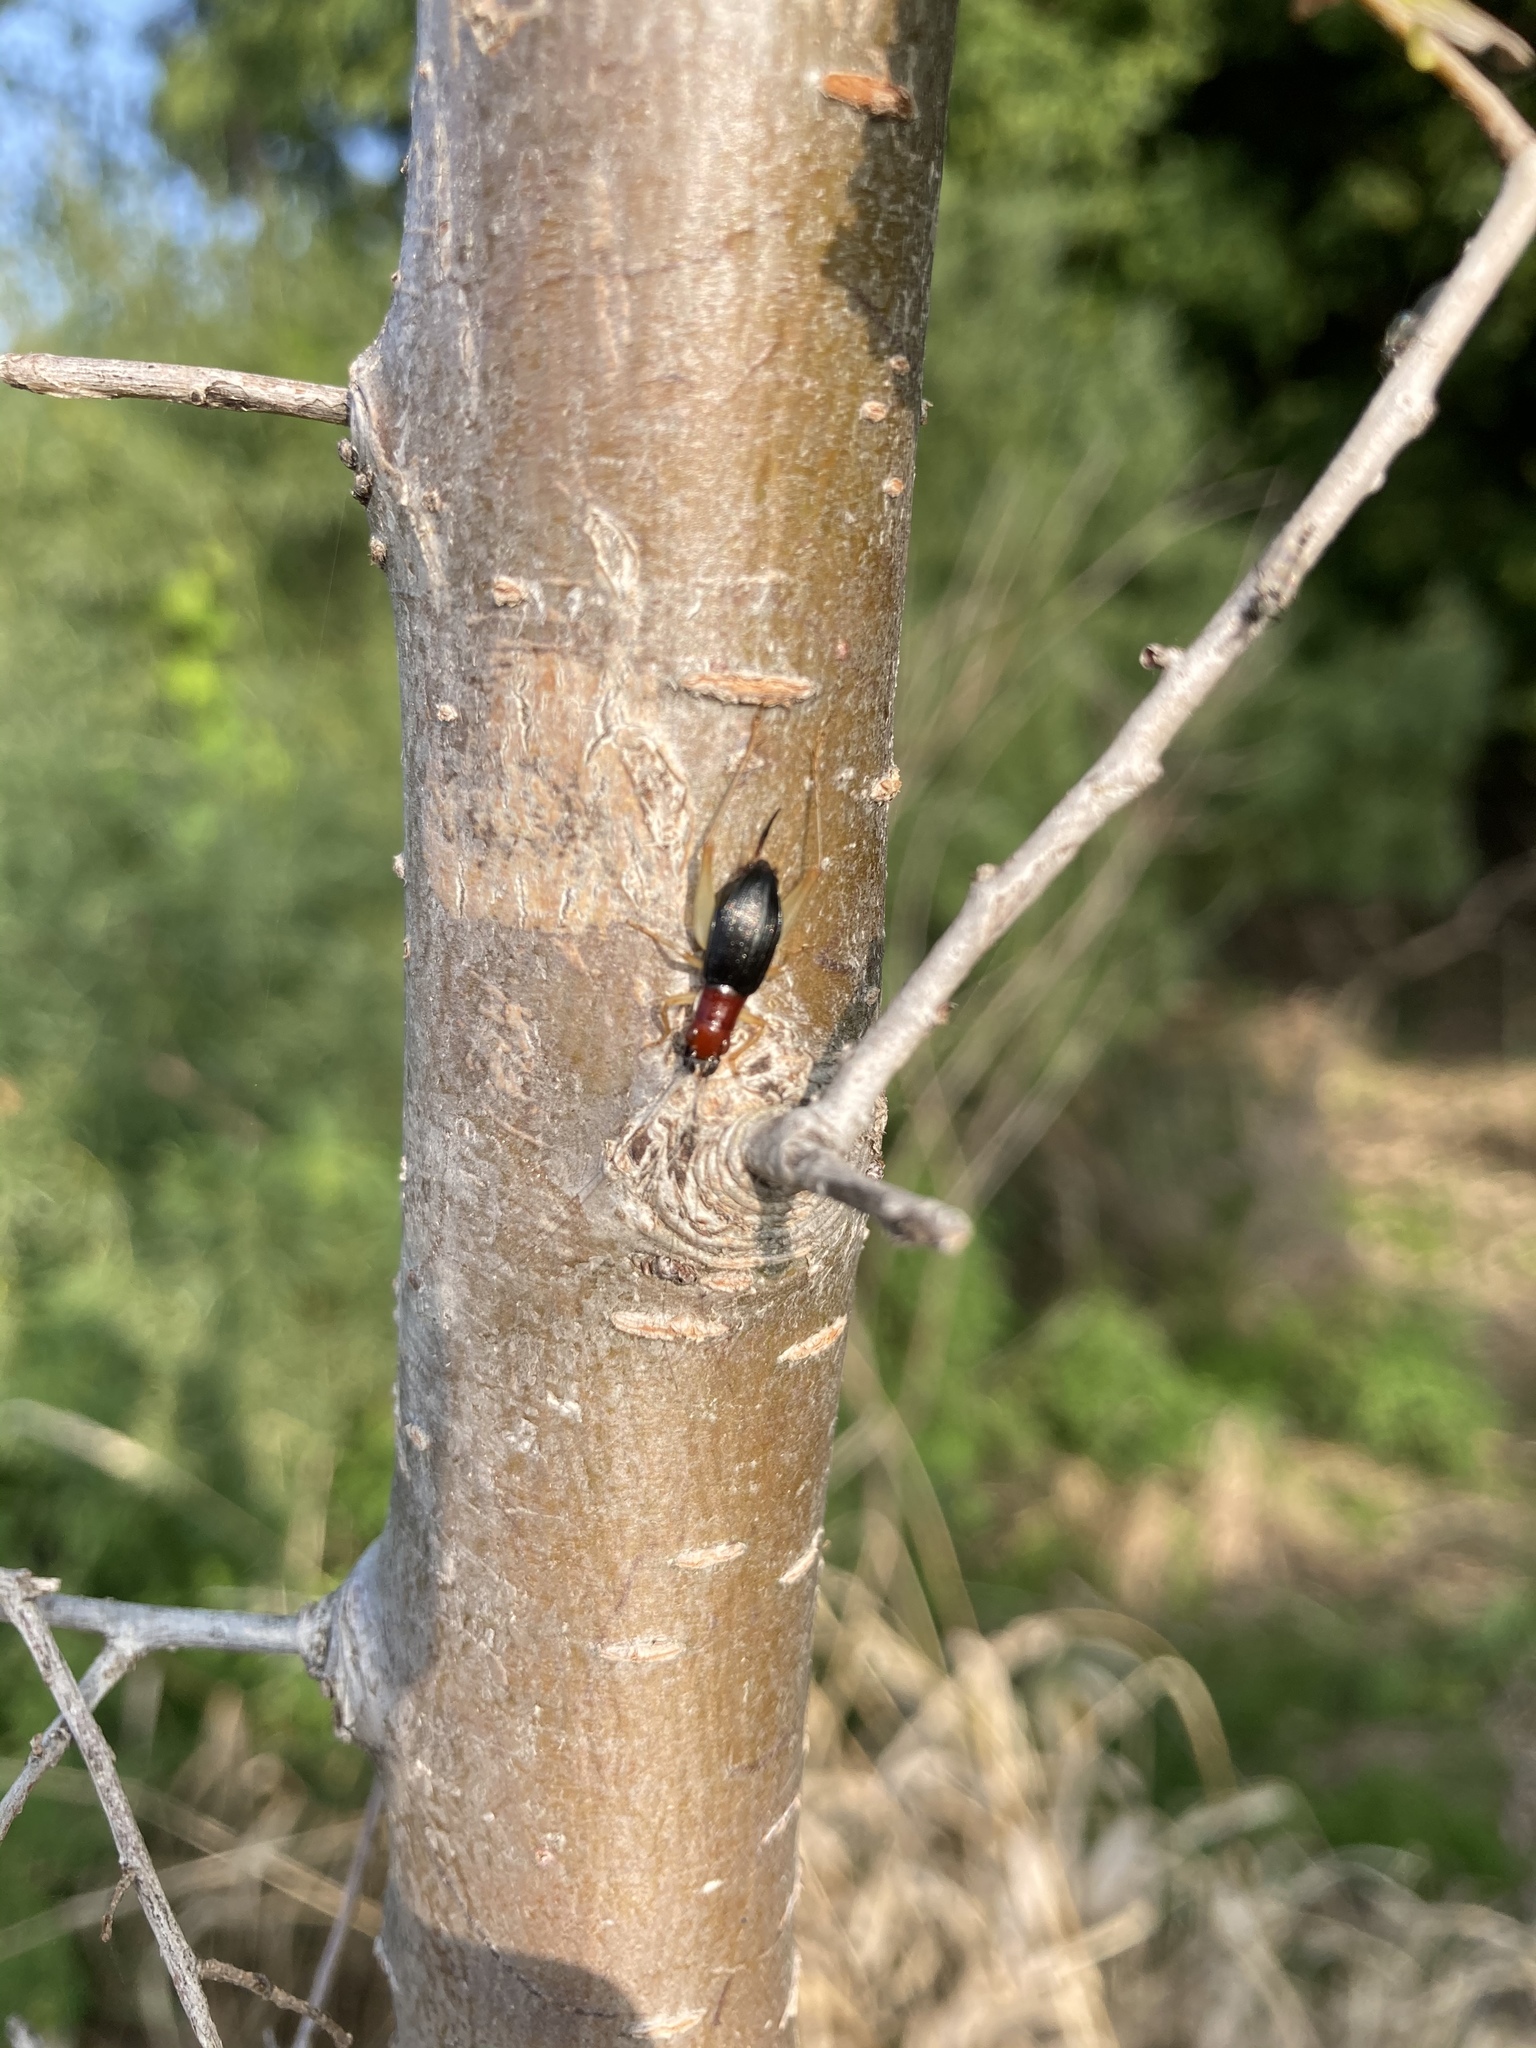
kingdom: Animalia
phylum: Arthropoda
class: Insecta
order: Orthoptera
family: Trigonidiidae
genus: Phyllopalpus
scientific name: Phyllopalpus pulchellus
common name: Handsome trig
